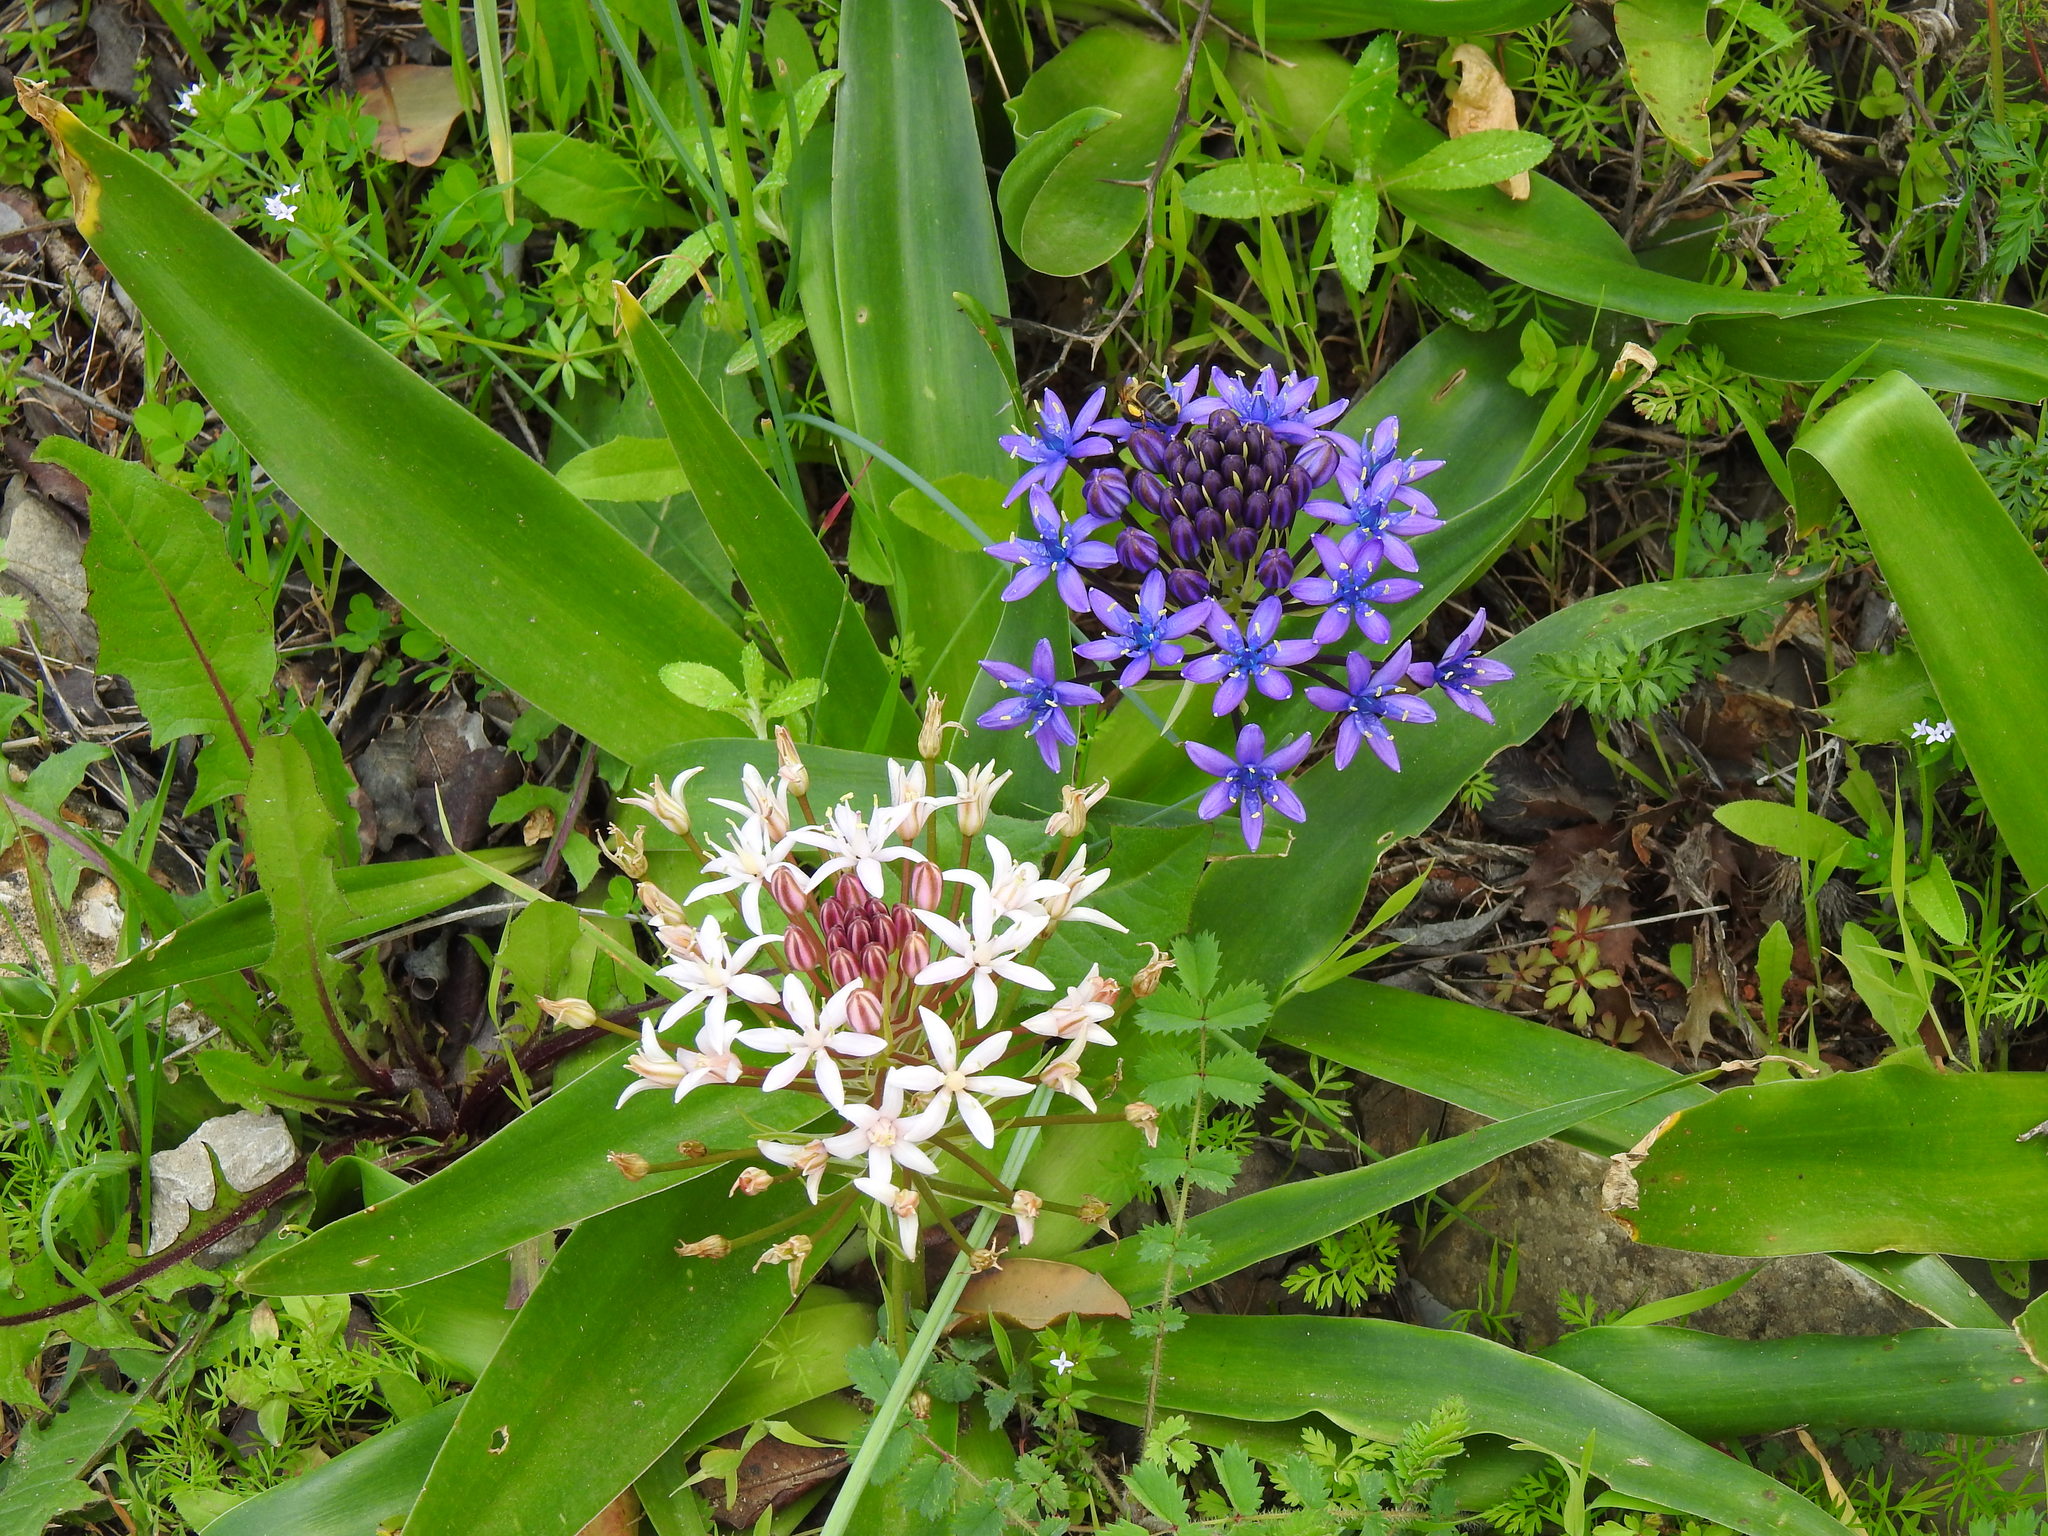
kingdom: Plantae
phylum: Tracheophyta
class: Liliopsida
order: Asparagales
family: Asparagaceae
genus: Scilla
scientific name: Scilla peruviana
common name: Portuguese squill
